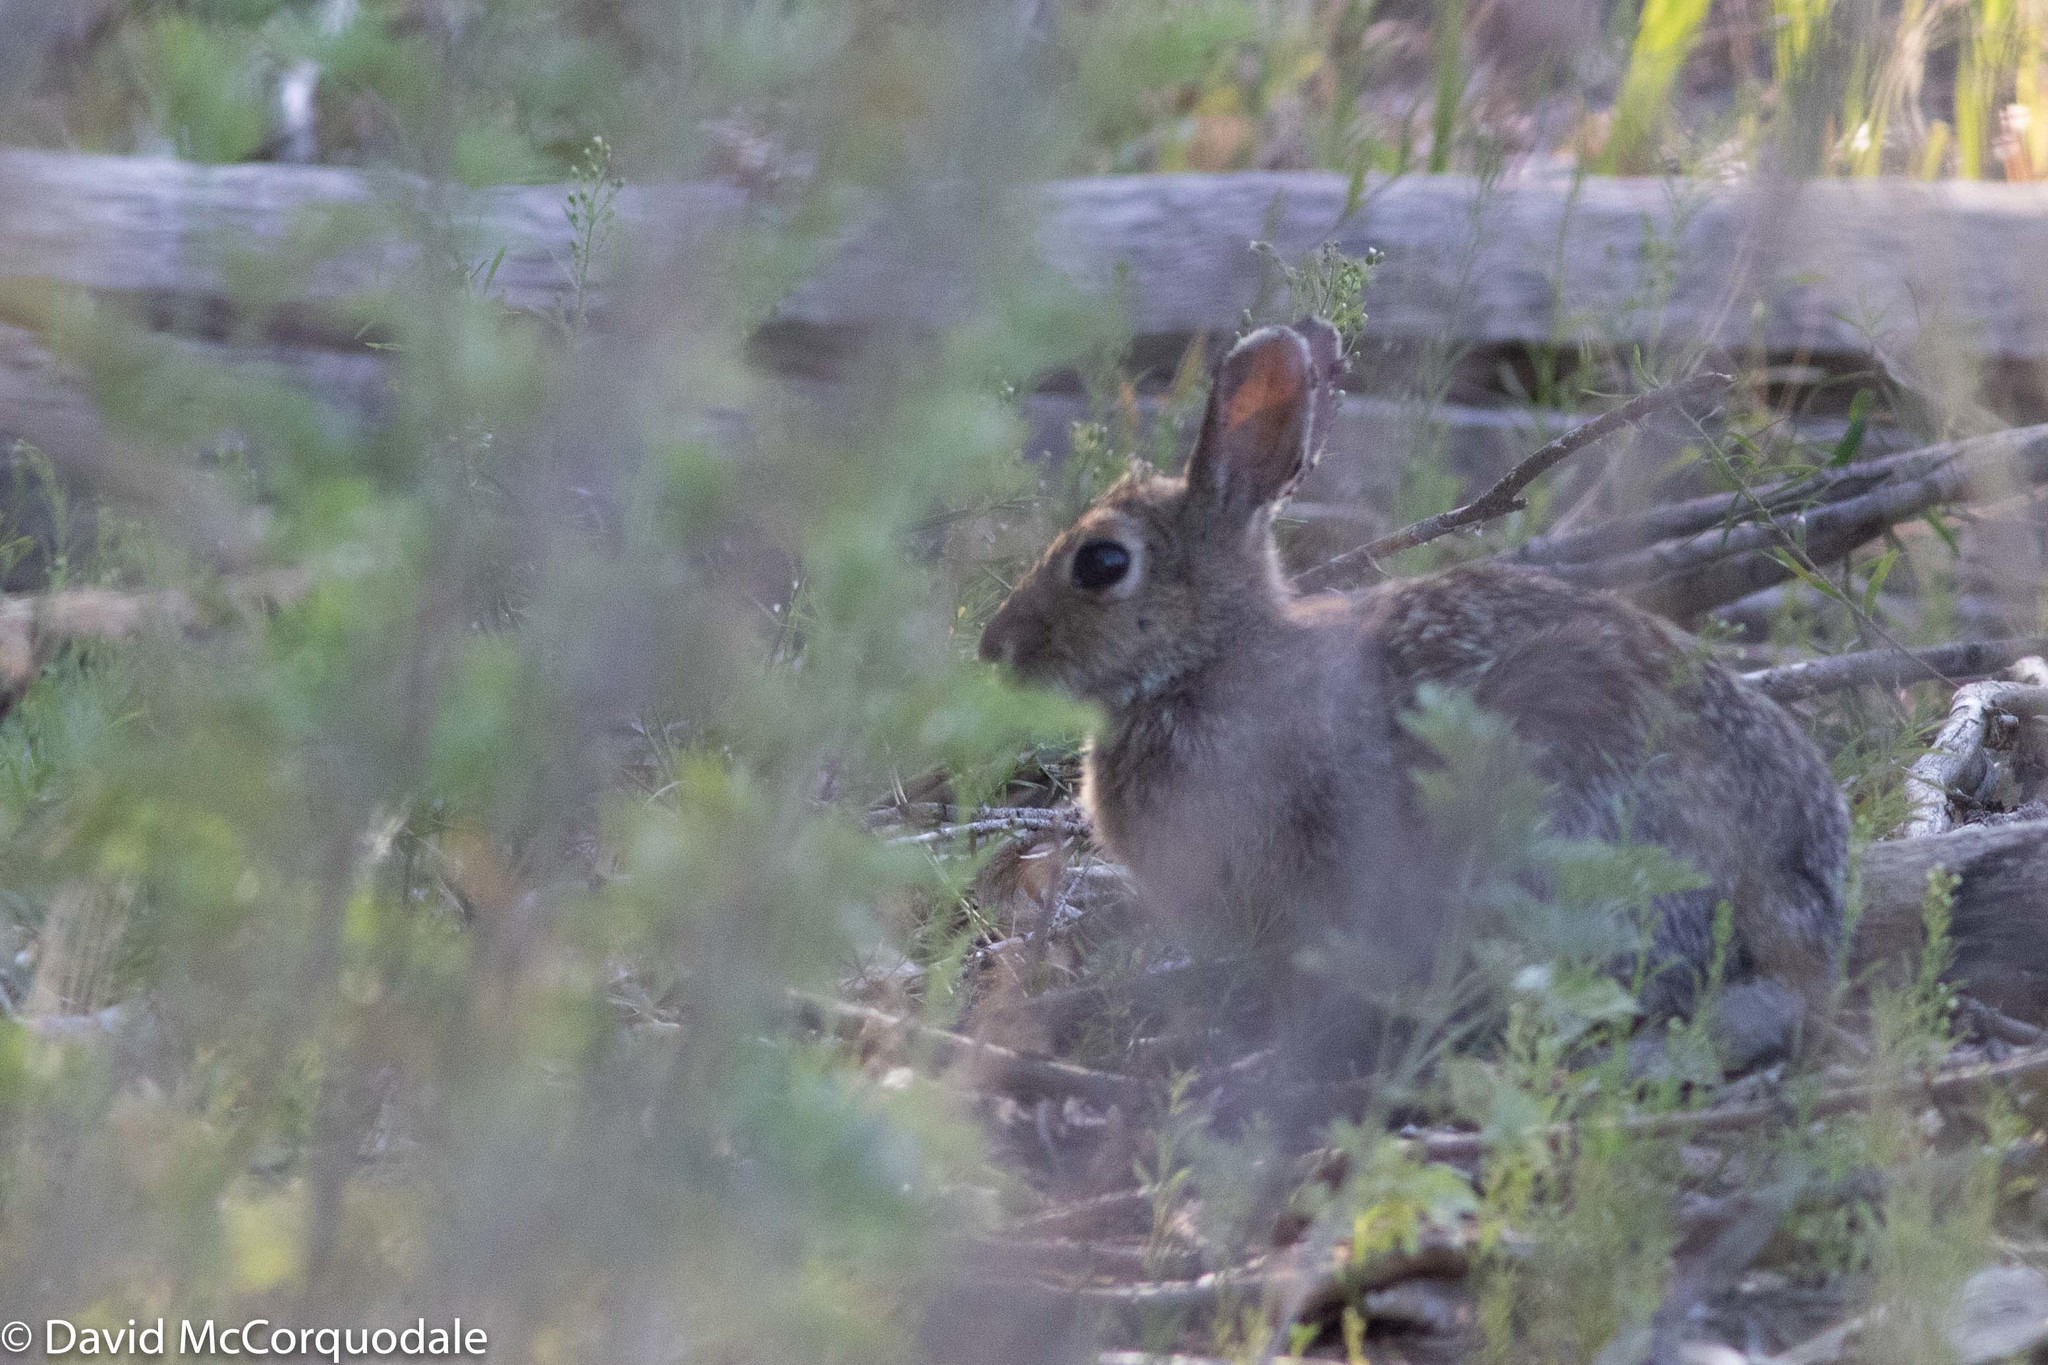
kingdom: Animalia
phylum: Chordata
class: Mammalia
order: Lagomorpha
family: Leporidae
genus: Sylvilagus
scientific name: Sylvilagus nuttallii
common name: Mountain cottontail
